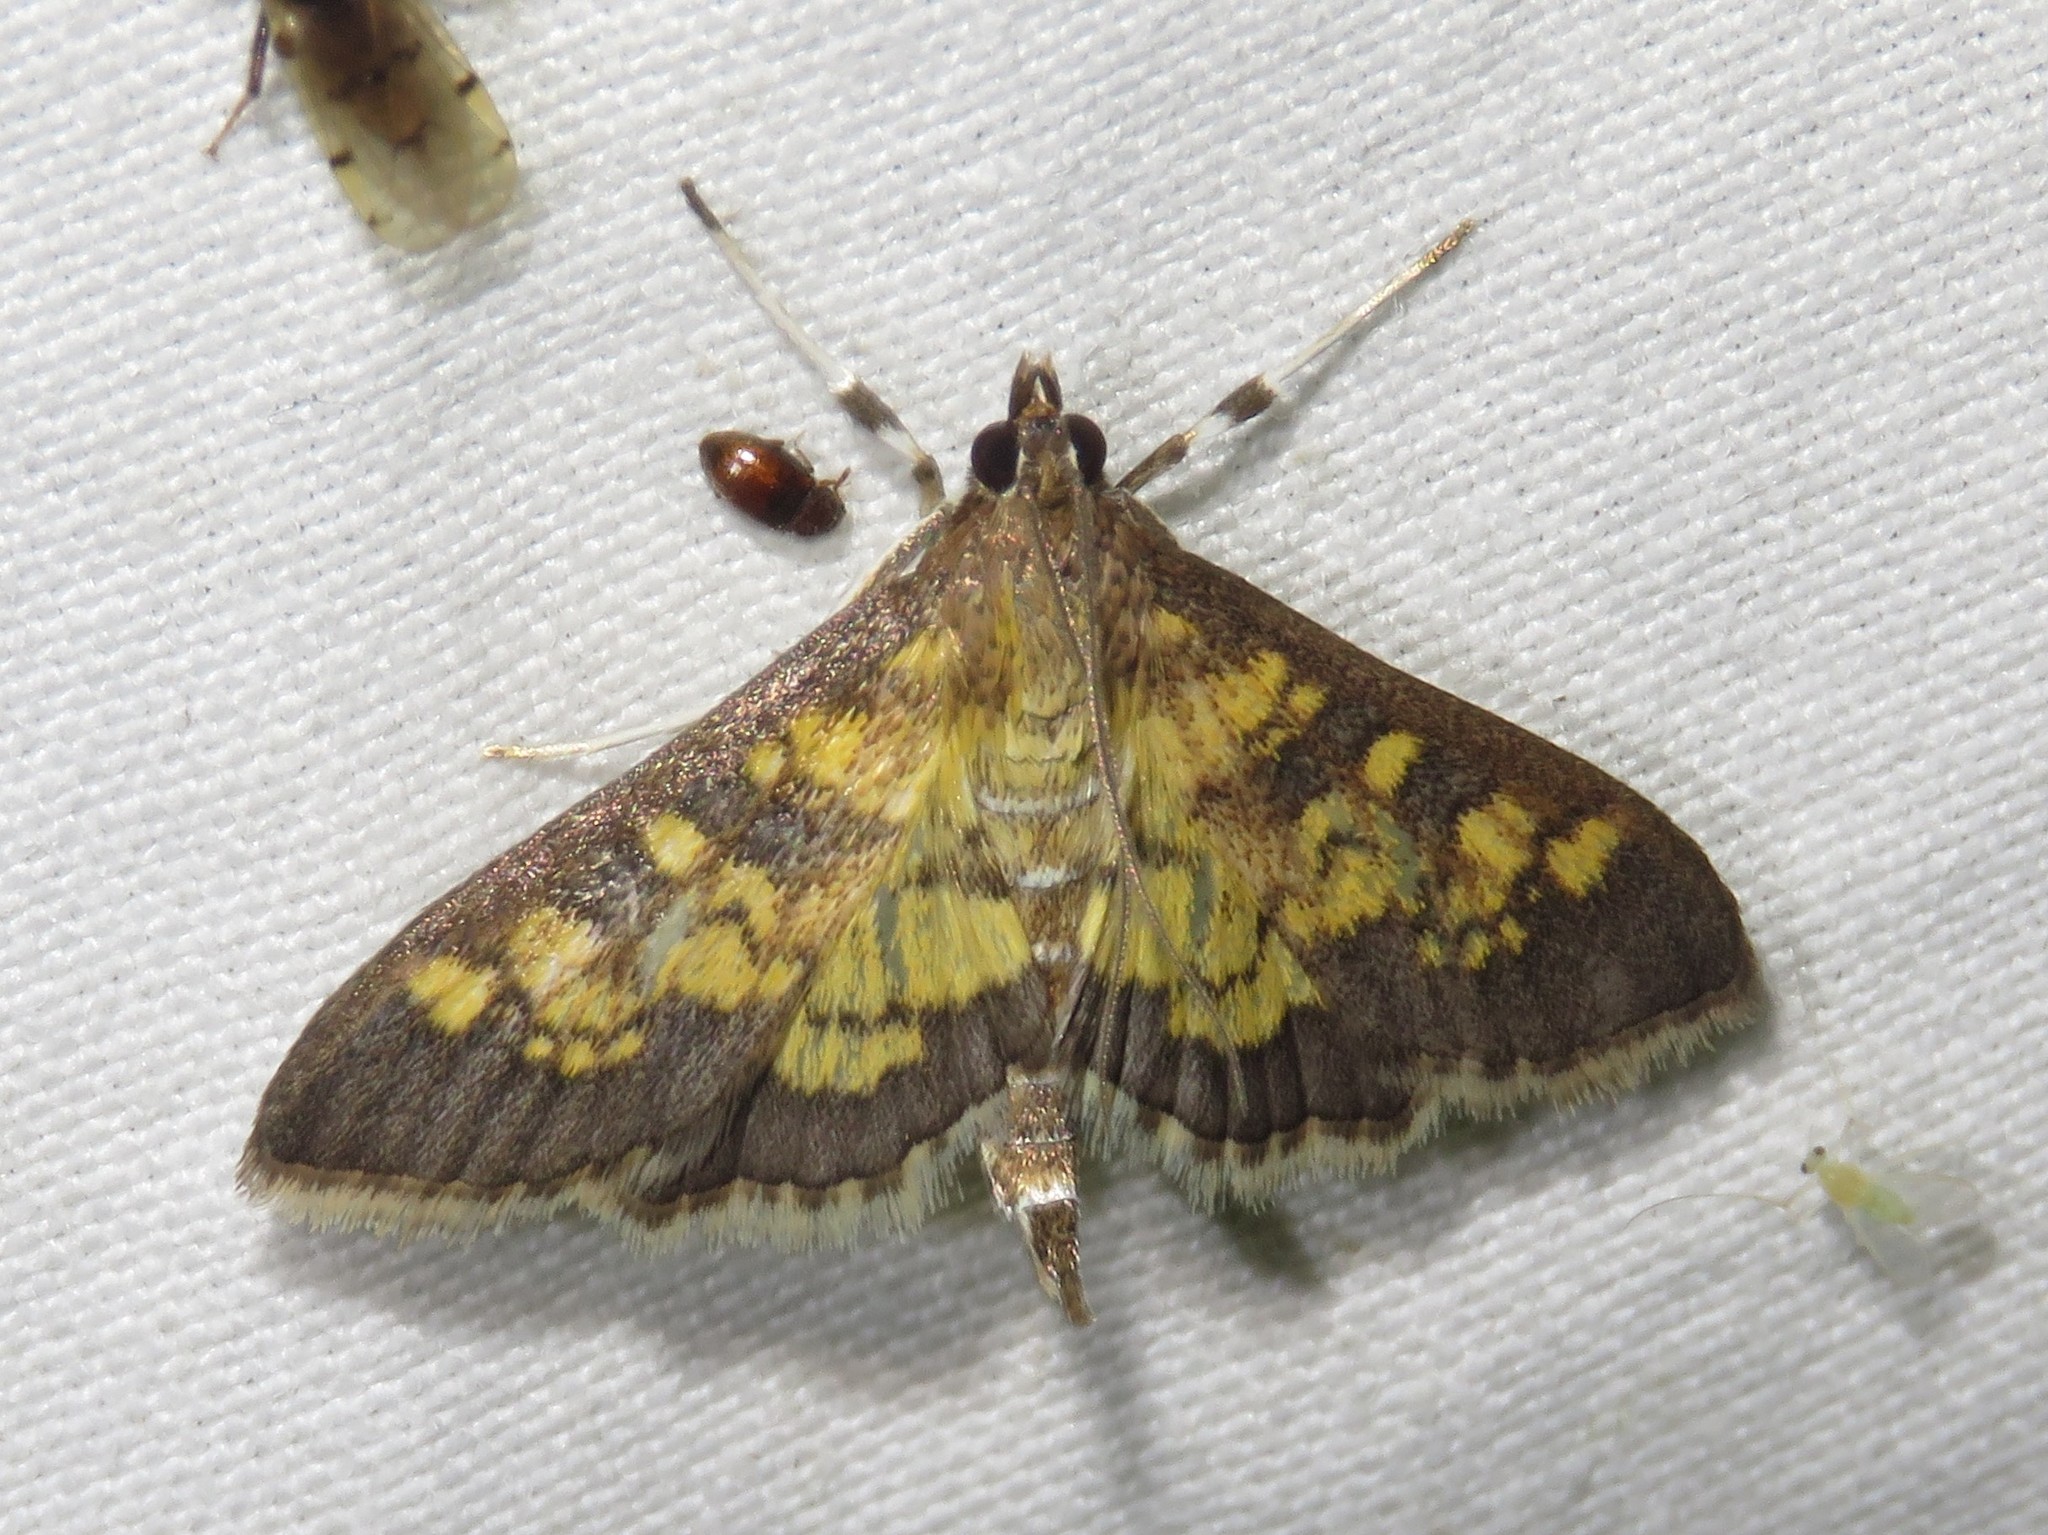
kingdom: Animalia
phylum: Arthropoda
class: Insecta
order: Lepidoptera
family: Crambidae
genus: Epipagis
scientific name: Epipagis adipaloides
